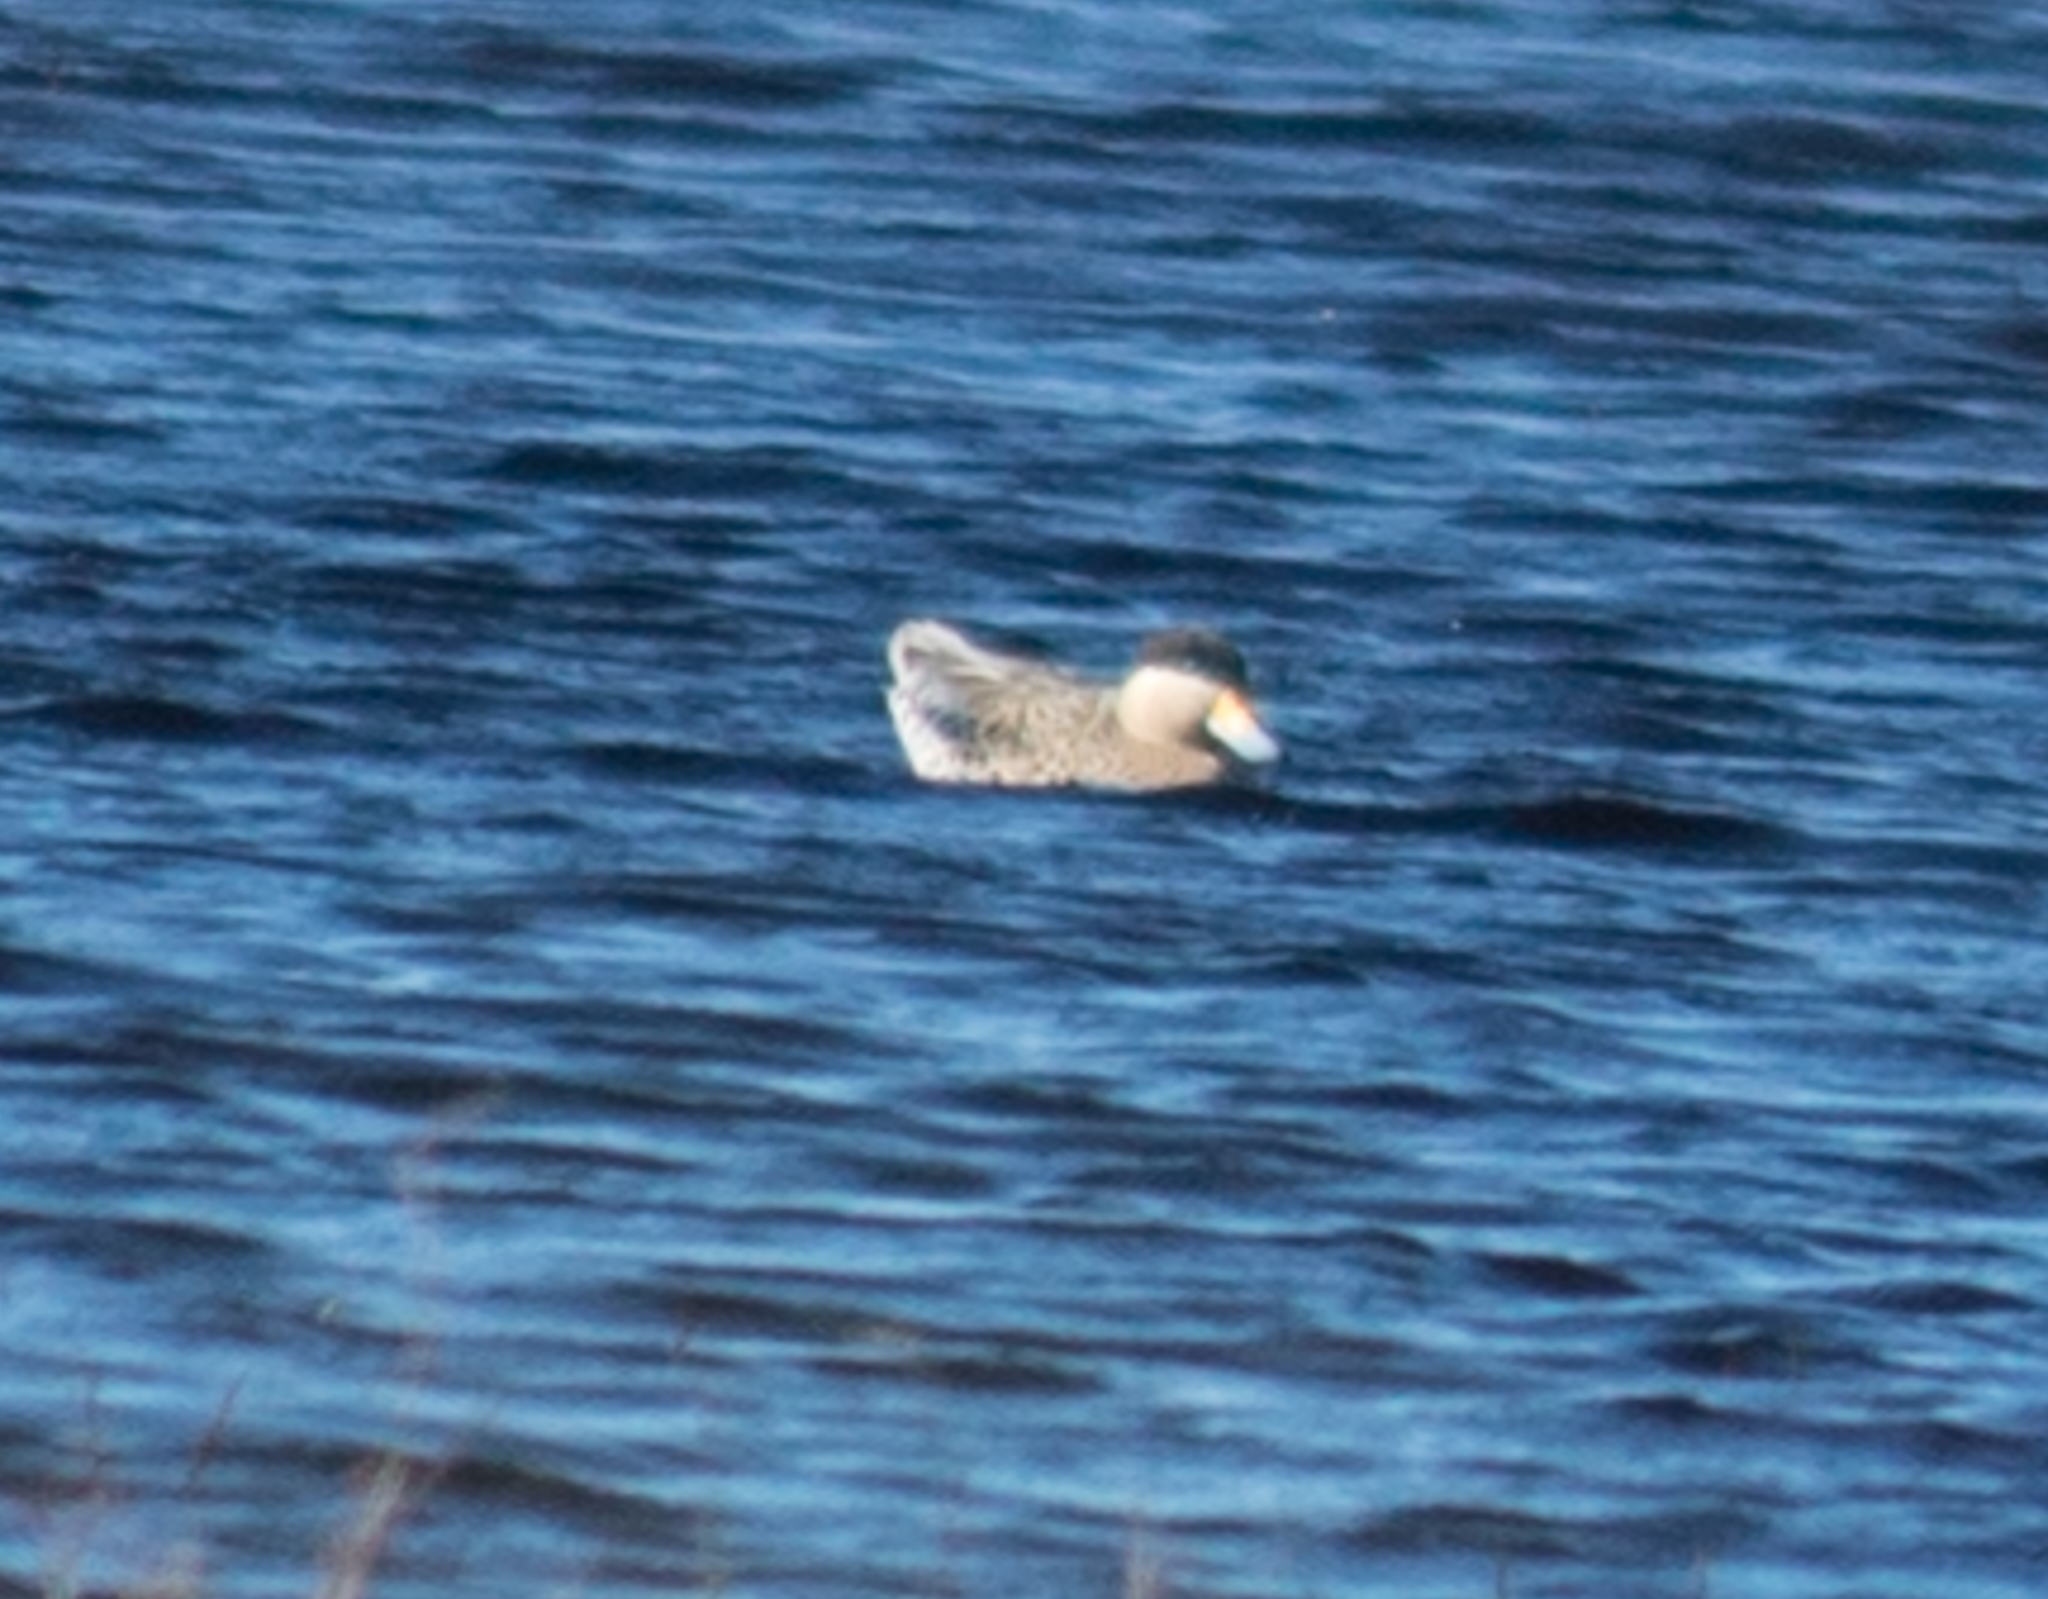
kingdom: Animalia
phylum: Chordata
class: Aves
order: Anseriformes
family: Anatidae
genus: Spatula
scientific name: Spatula versicolor
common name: Silver teal
